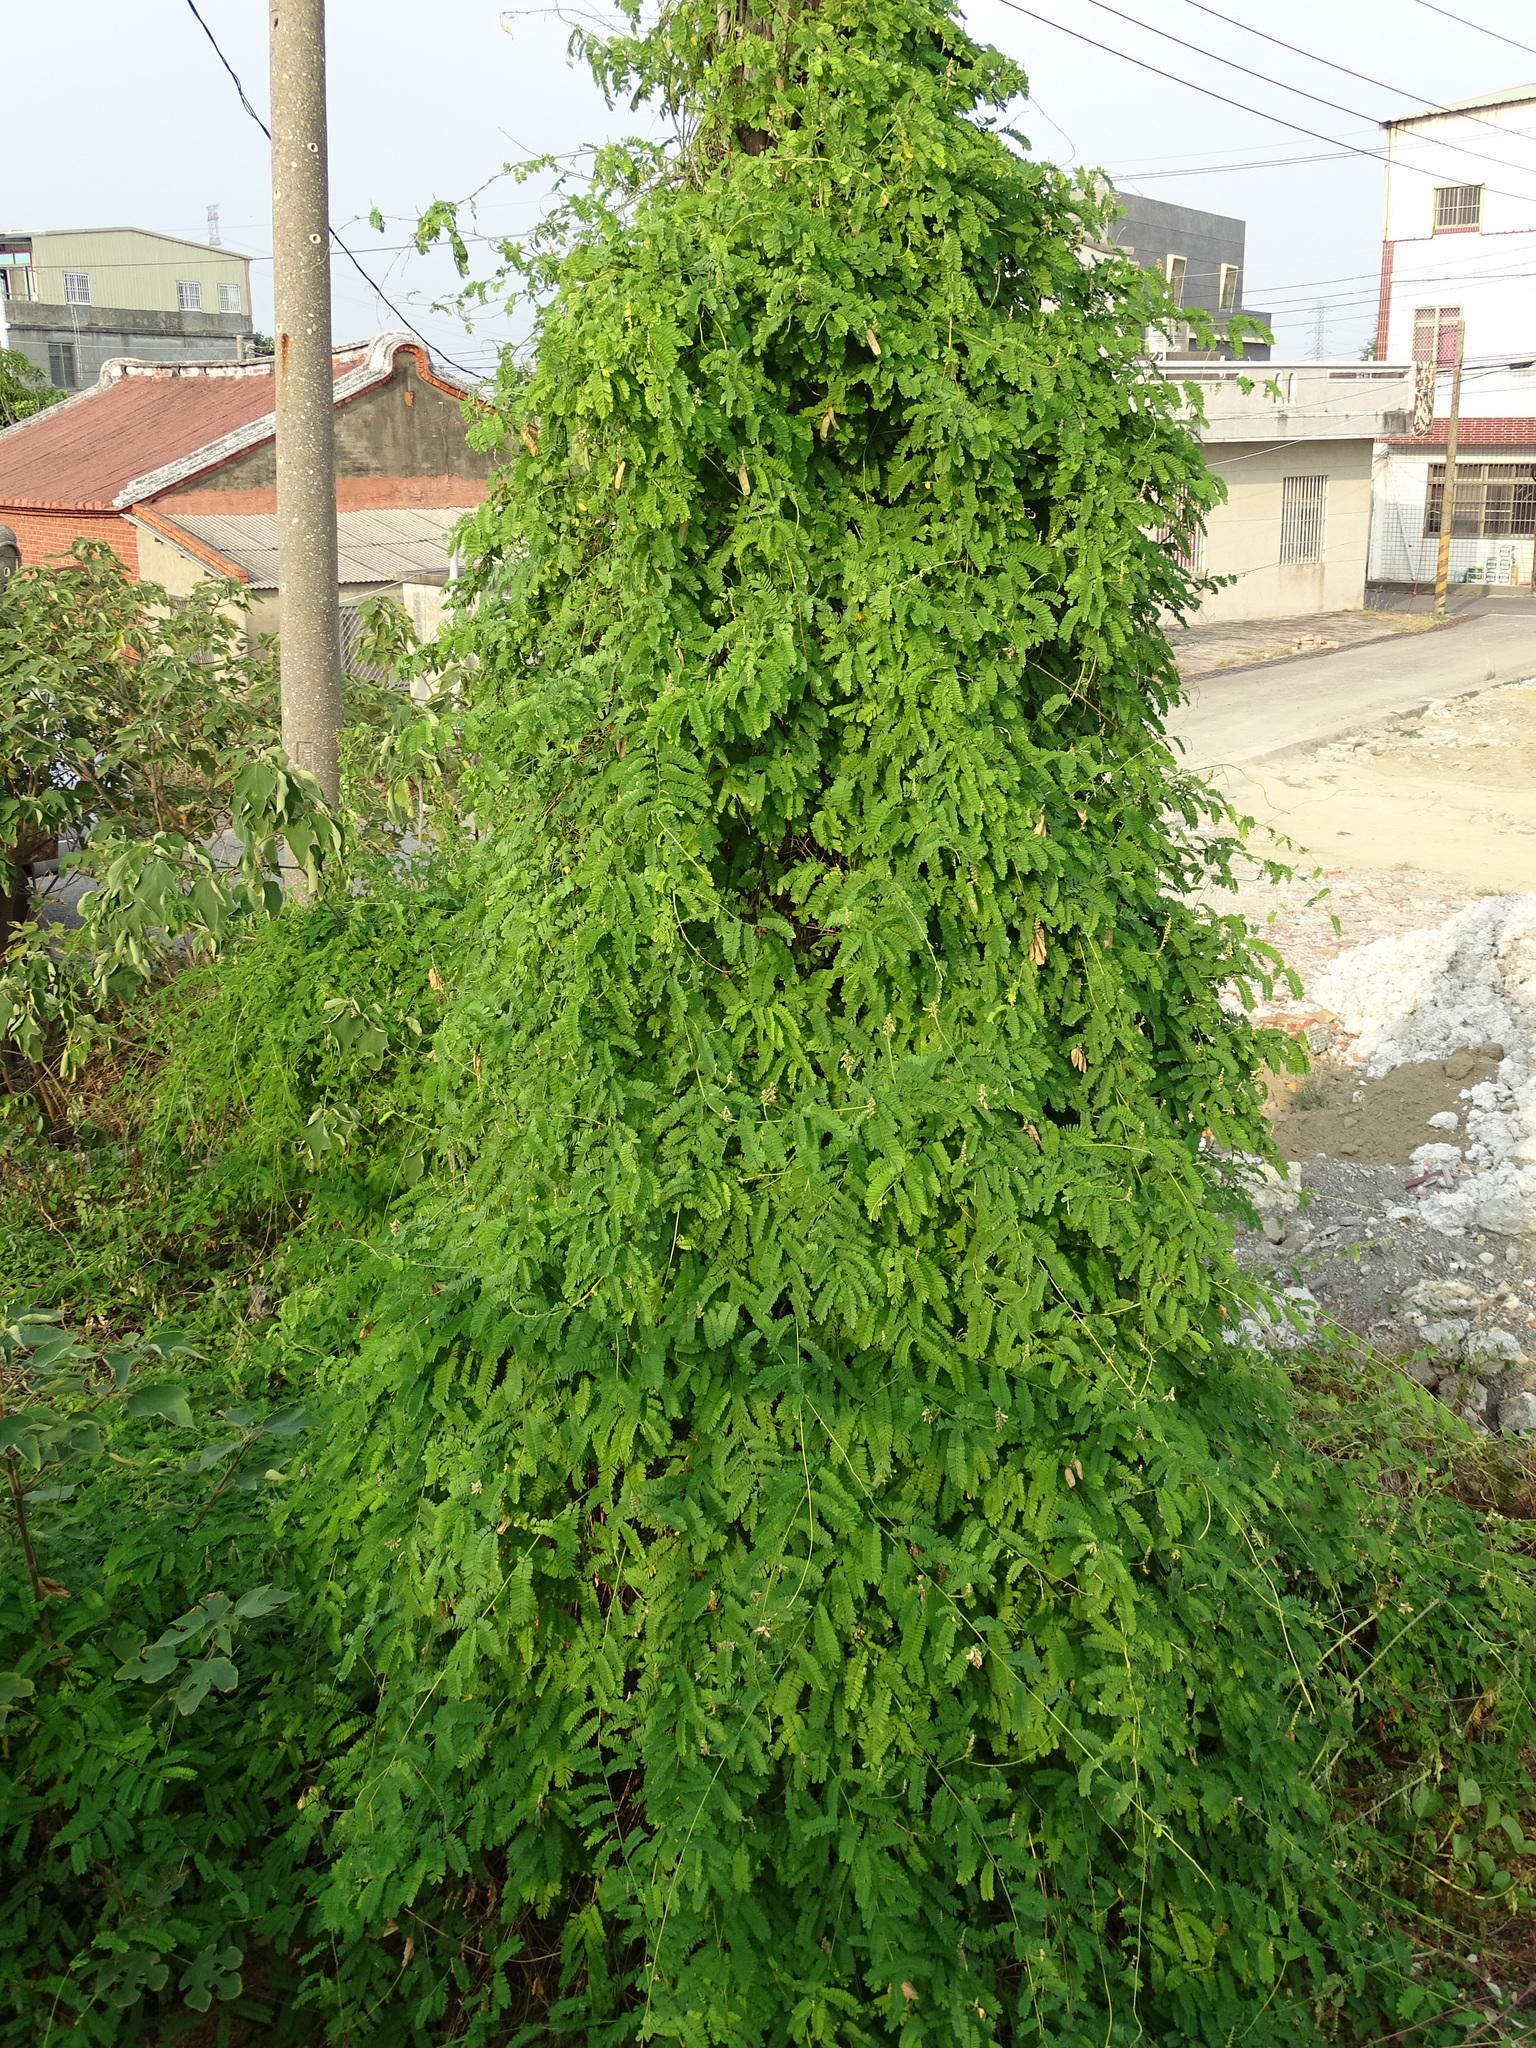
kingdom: Plantae
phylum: Tracheophyta
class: Magnoliopsida
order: Fabales
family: Fabaceae
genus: Abrus
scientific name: Abrus precatorius
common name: Rosarypea
